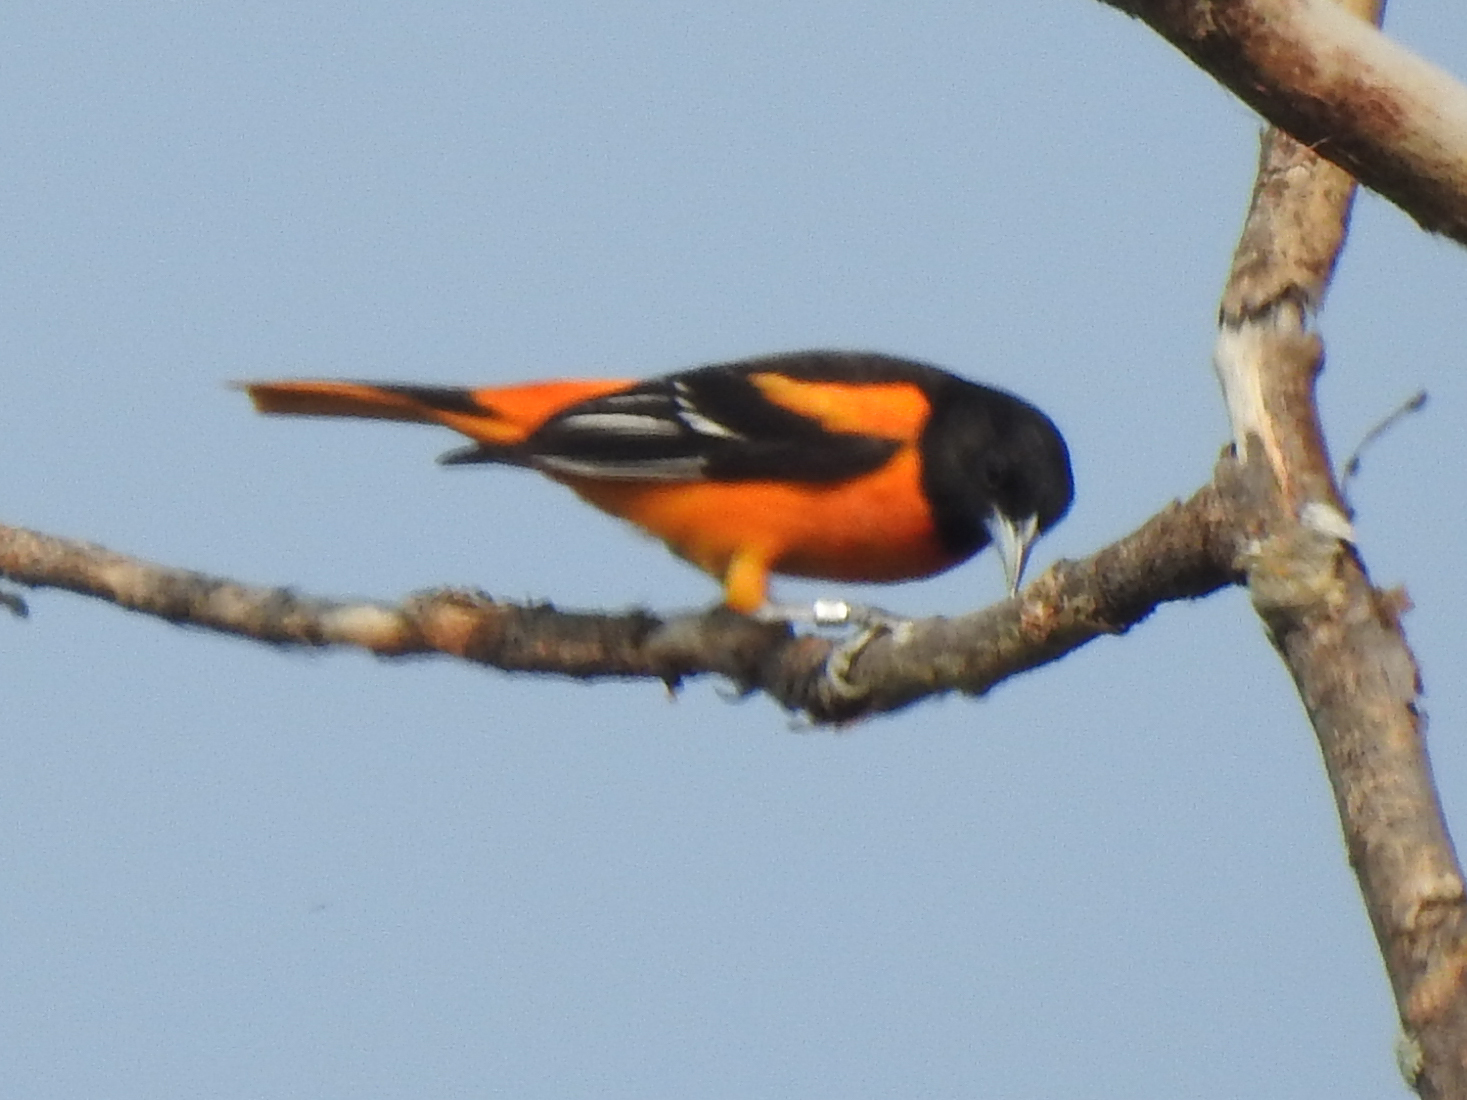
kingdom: Animalia
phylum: Chordata
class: Aves
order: Passeriformes
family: Icteridae
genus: Icterus
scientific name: Icterus galbula
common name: Baltimore oriole
